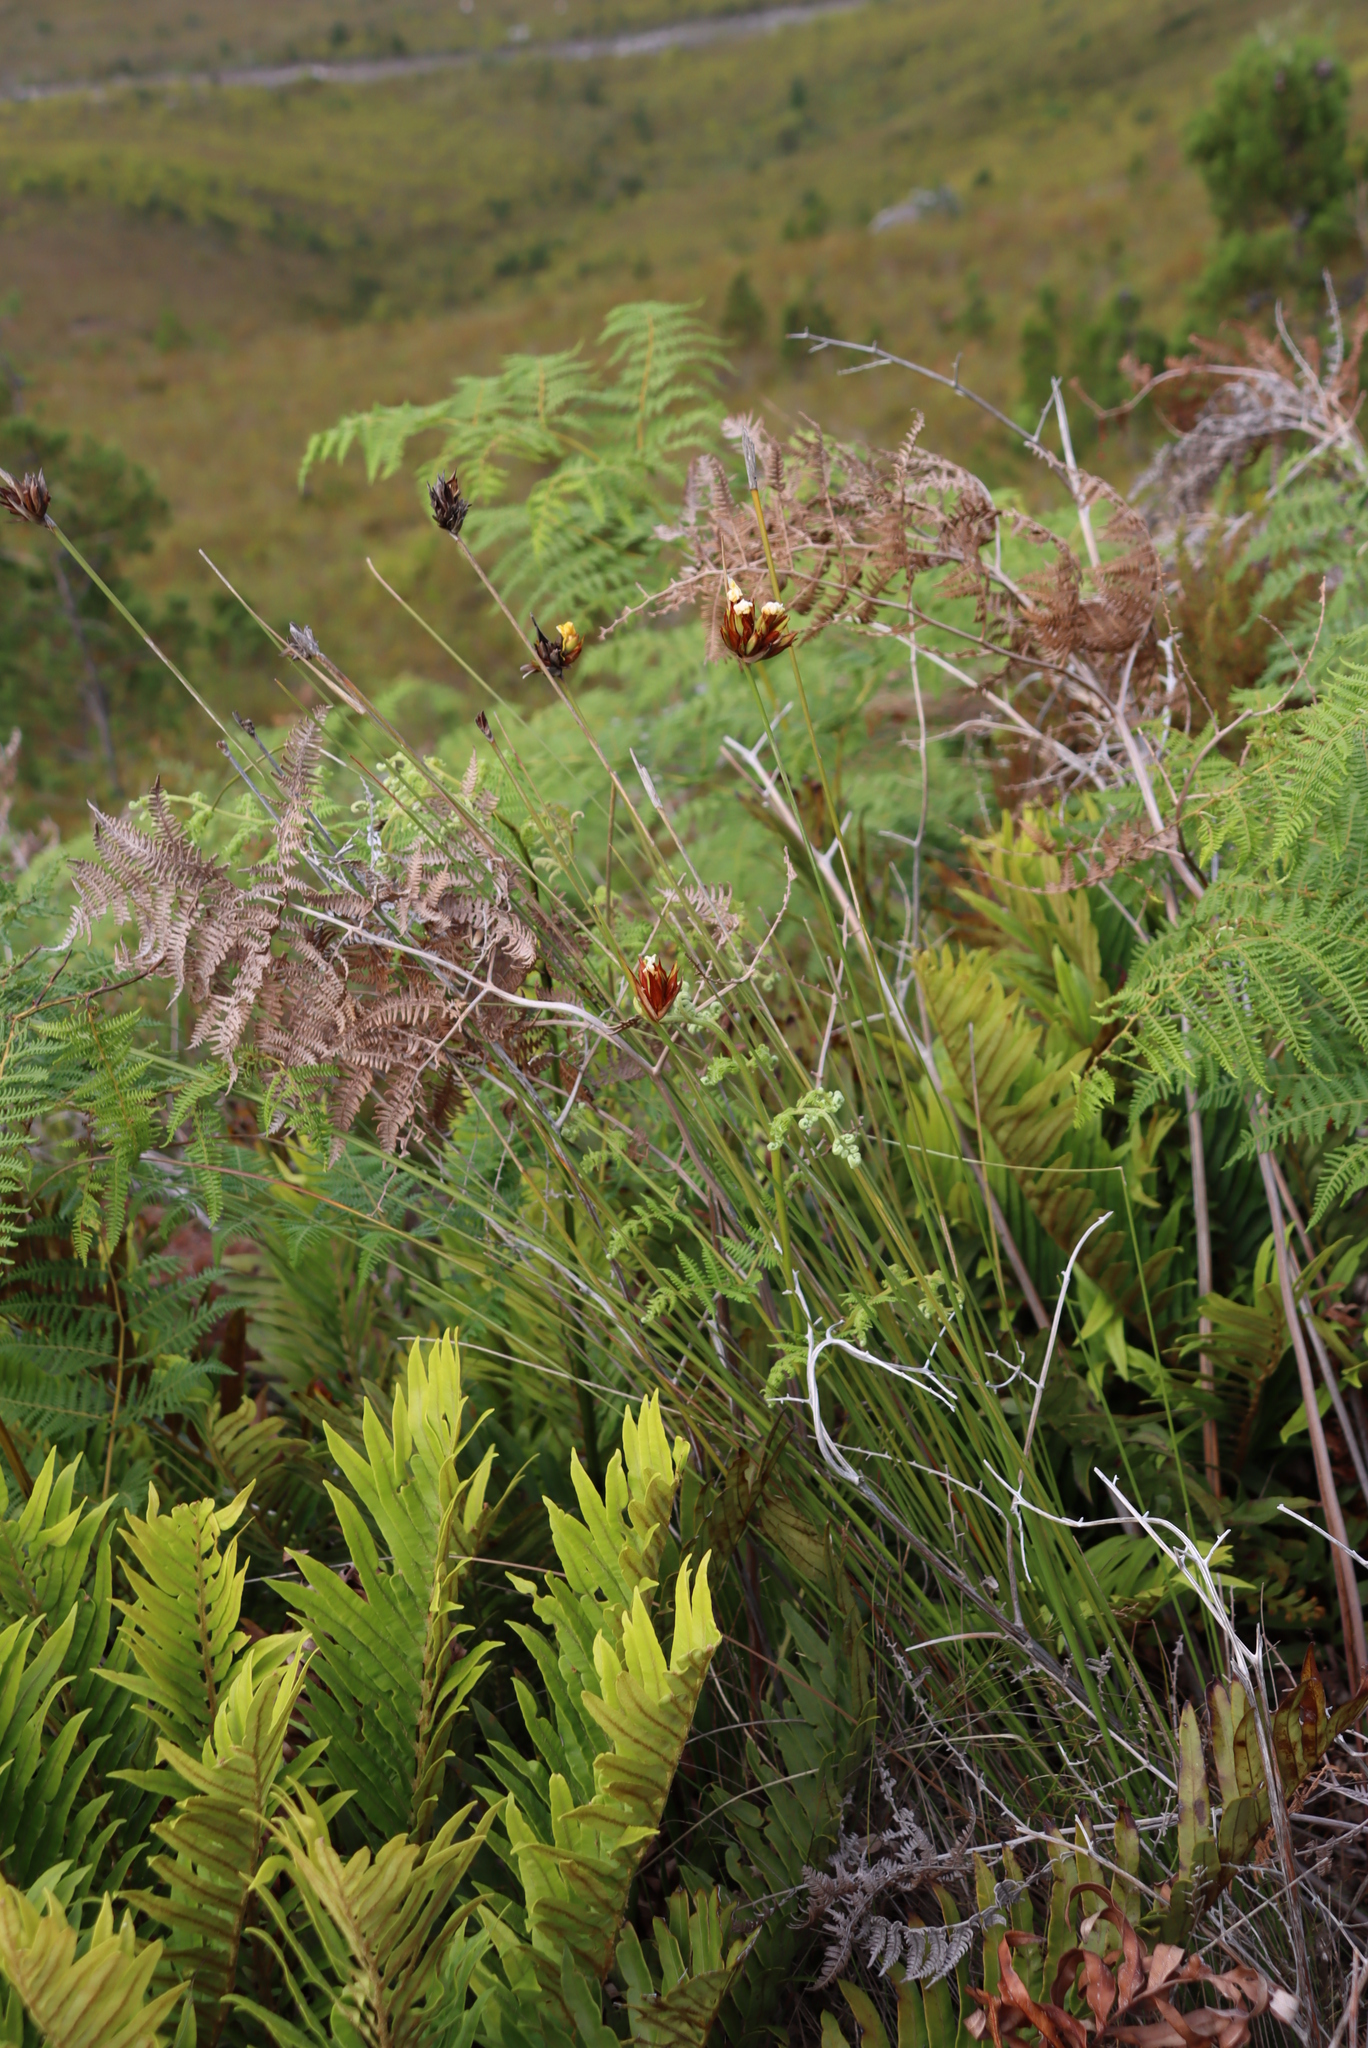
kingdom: Plantae
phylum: Tracheophyta
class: Liliopsida
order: Asparagales
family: Iridaceae
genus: Bobartia
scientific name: Bobartia macrospatha
